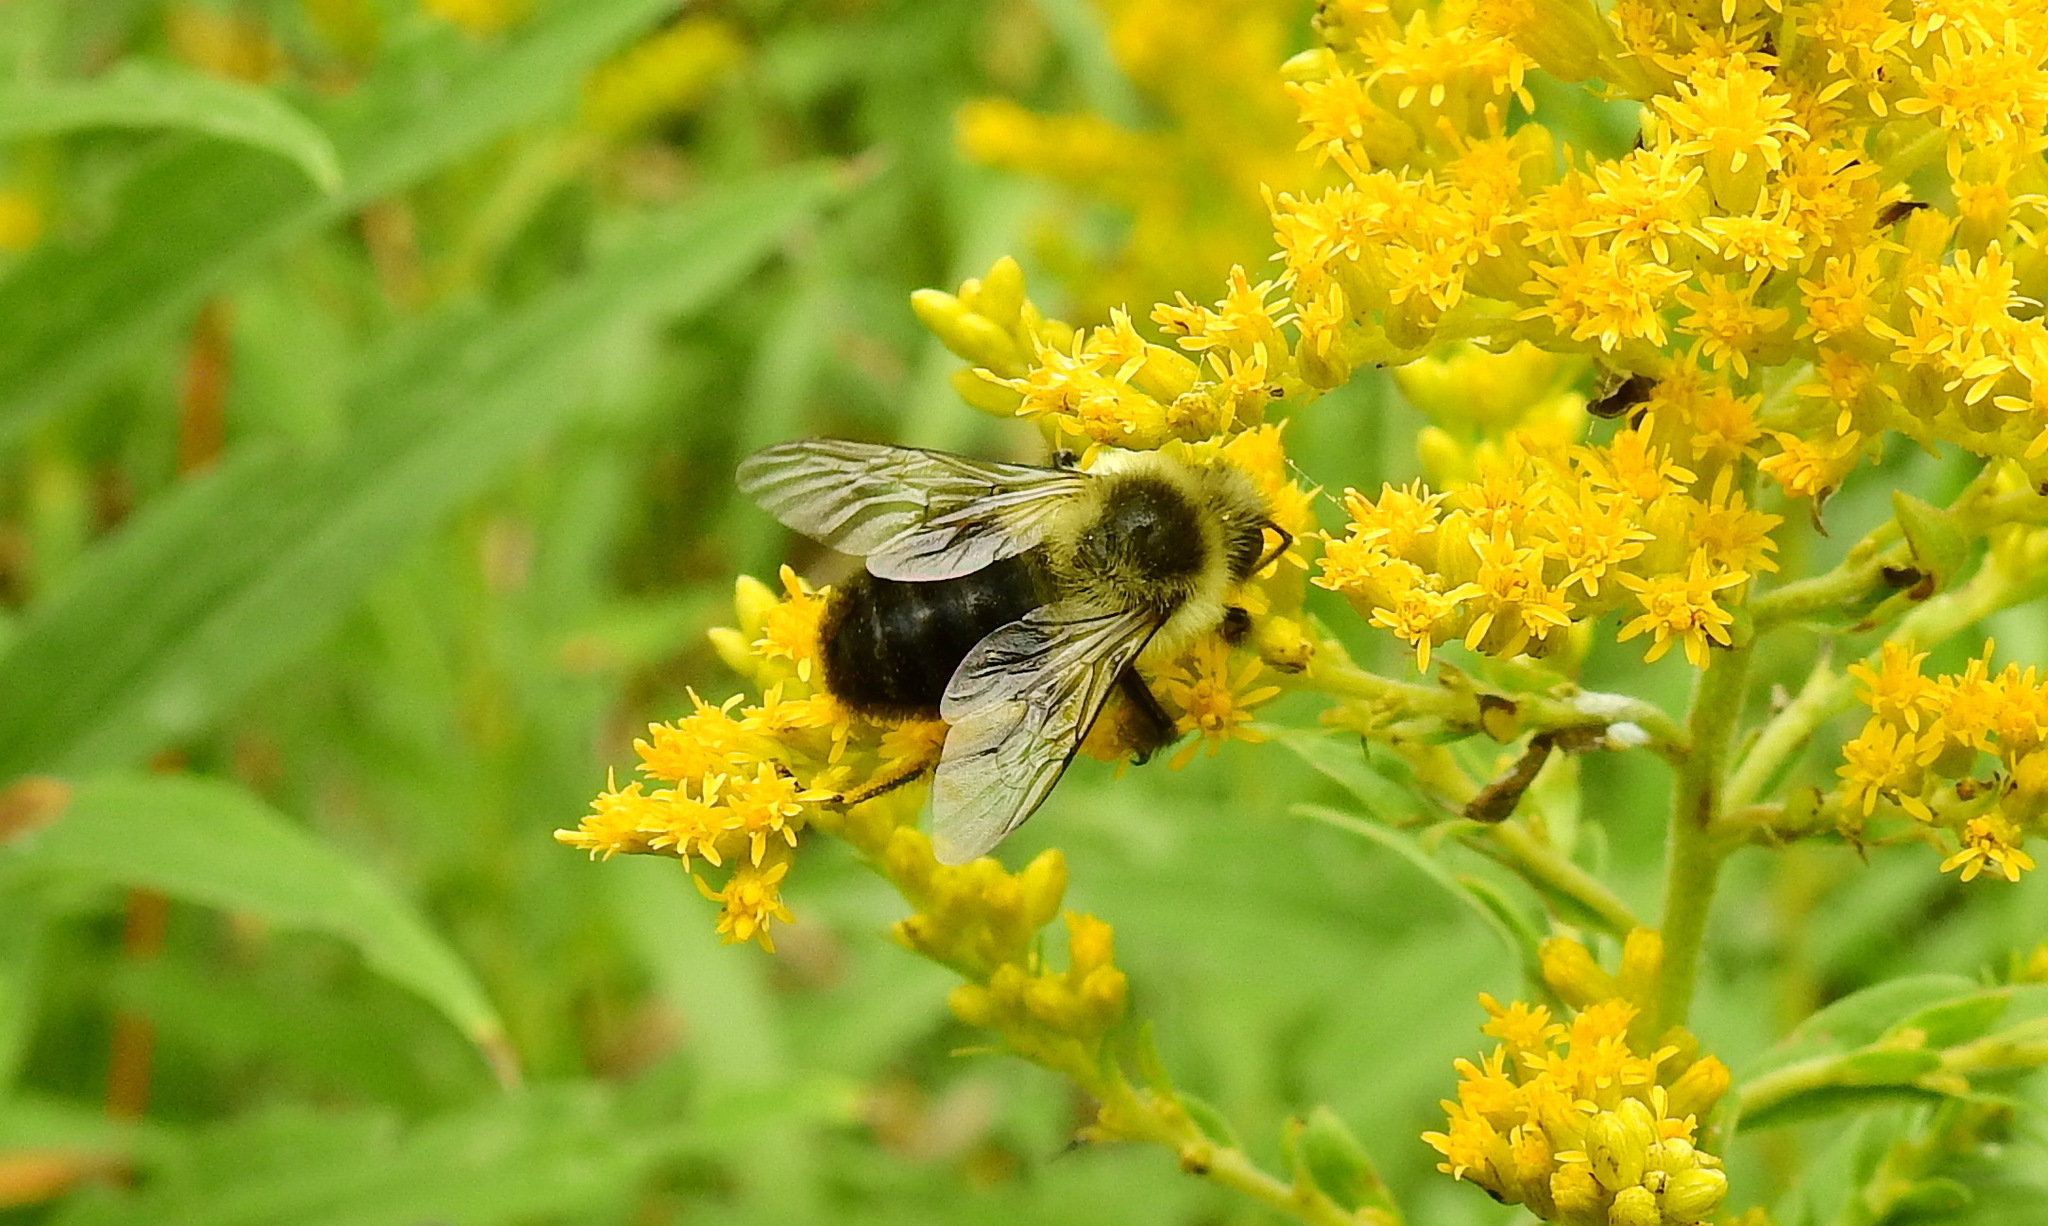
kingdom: Animalia
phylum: Arthropoda
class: Insecta
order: Hymenoptera
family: Apidae
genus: Bombus
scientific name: Bombus impatiens
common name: Common eastern bumble bee
